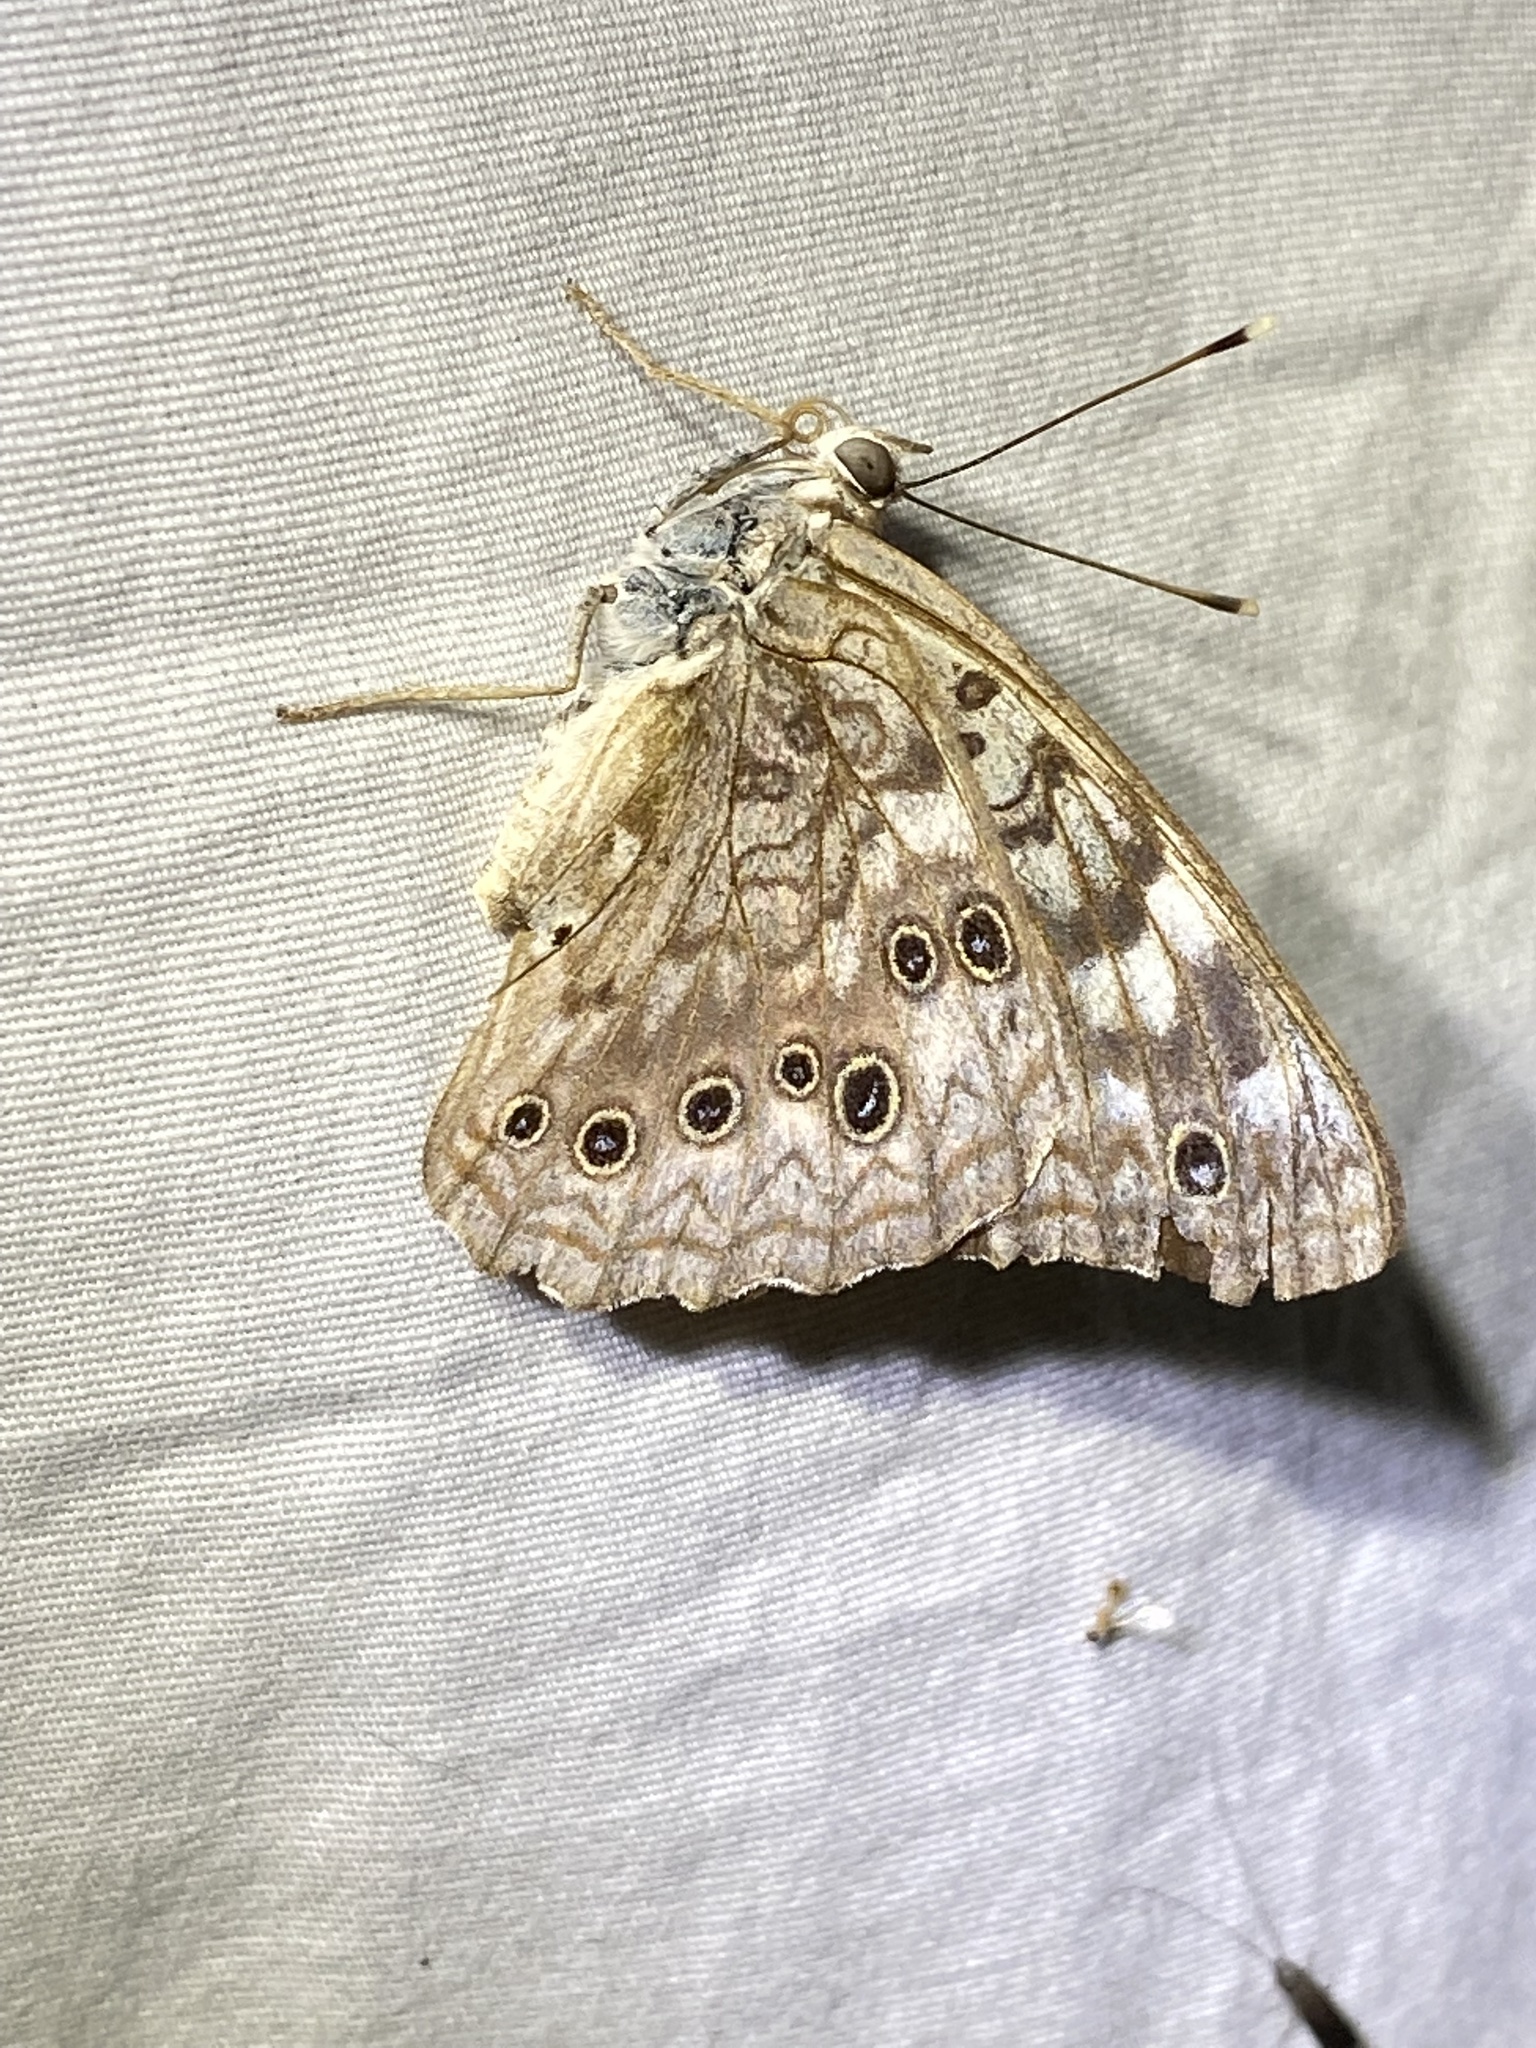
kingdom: Animalia
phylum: Arthropoda
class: Insecta
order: Lepidoptera
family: Nymphalidae
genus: Asterocampa
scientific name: Asterocampa celtis
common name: Hackberry emperor
